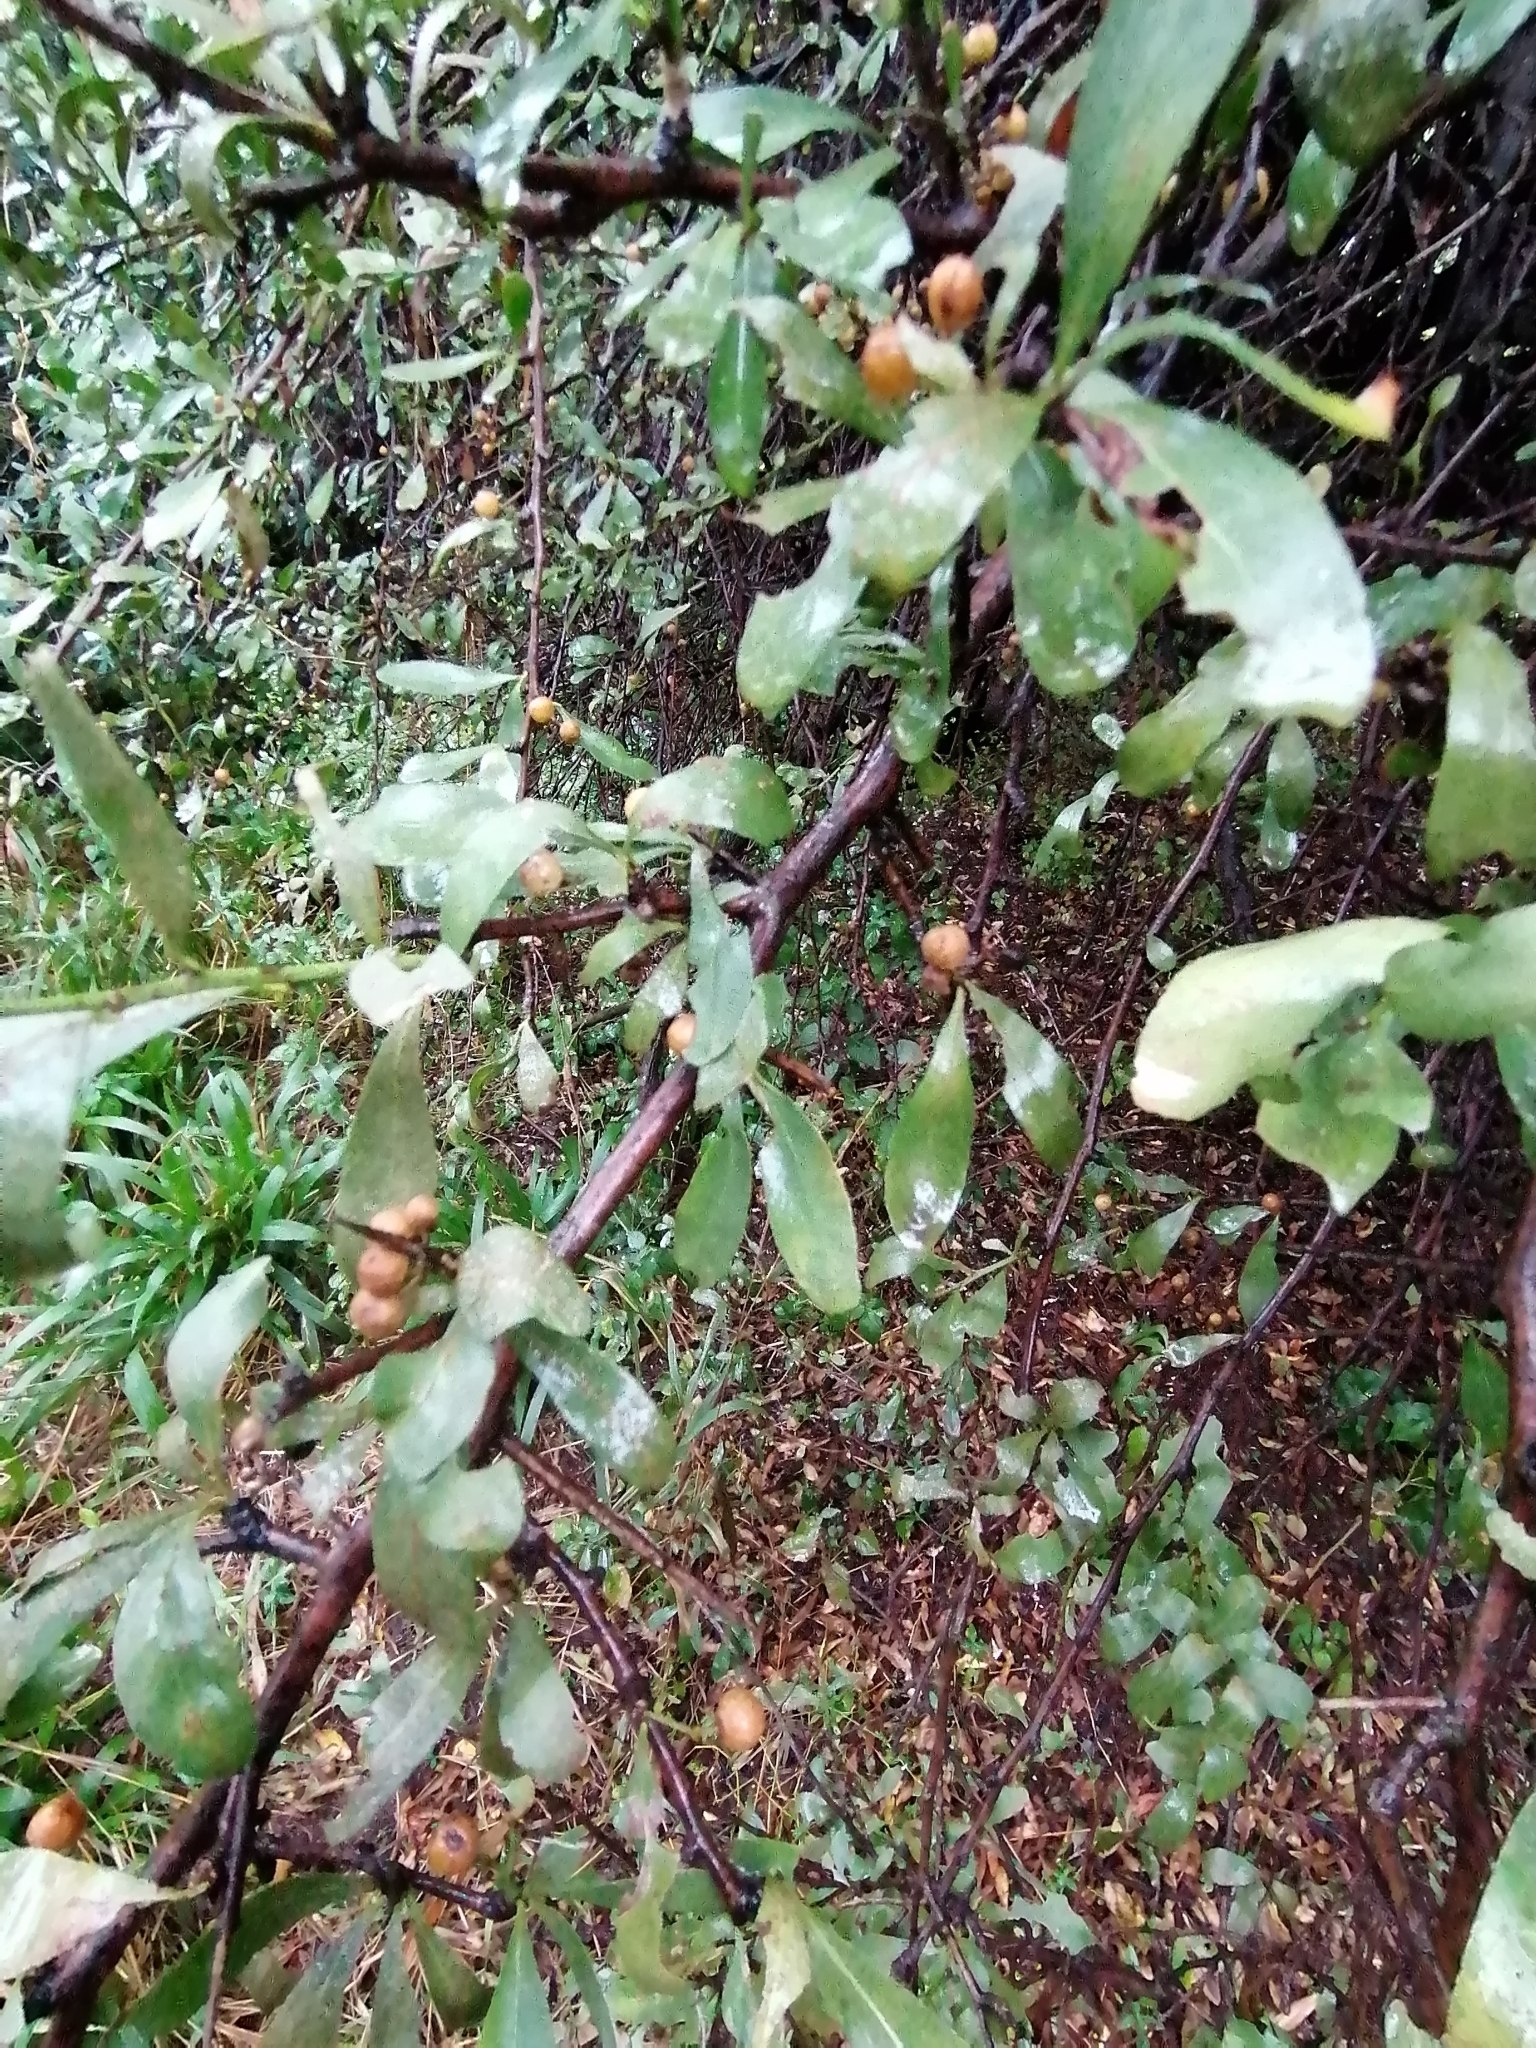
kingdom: Plantae
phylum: Tracheophyta
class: Magnoliopsida
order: Celastrales
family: Celastraceae
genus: Gymnosporia
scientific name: Gymnosporia buxifolia
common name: Common spike-thorn
